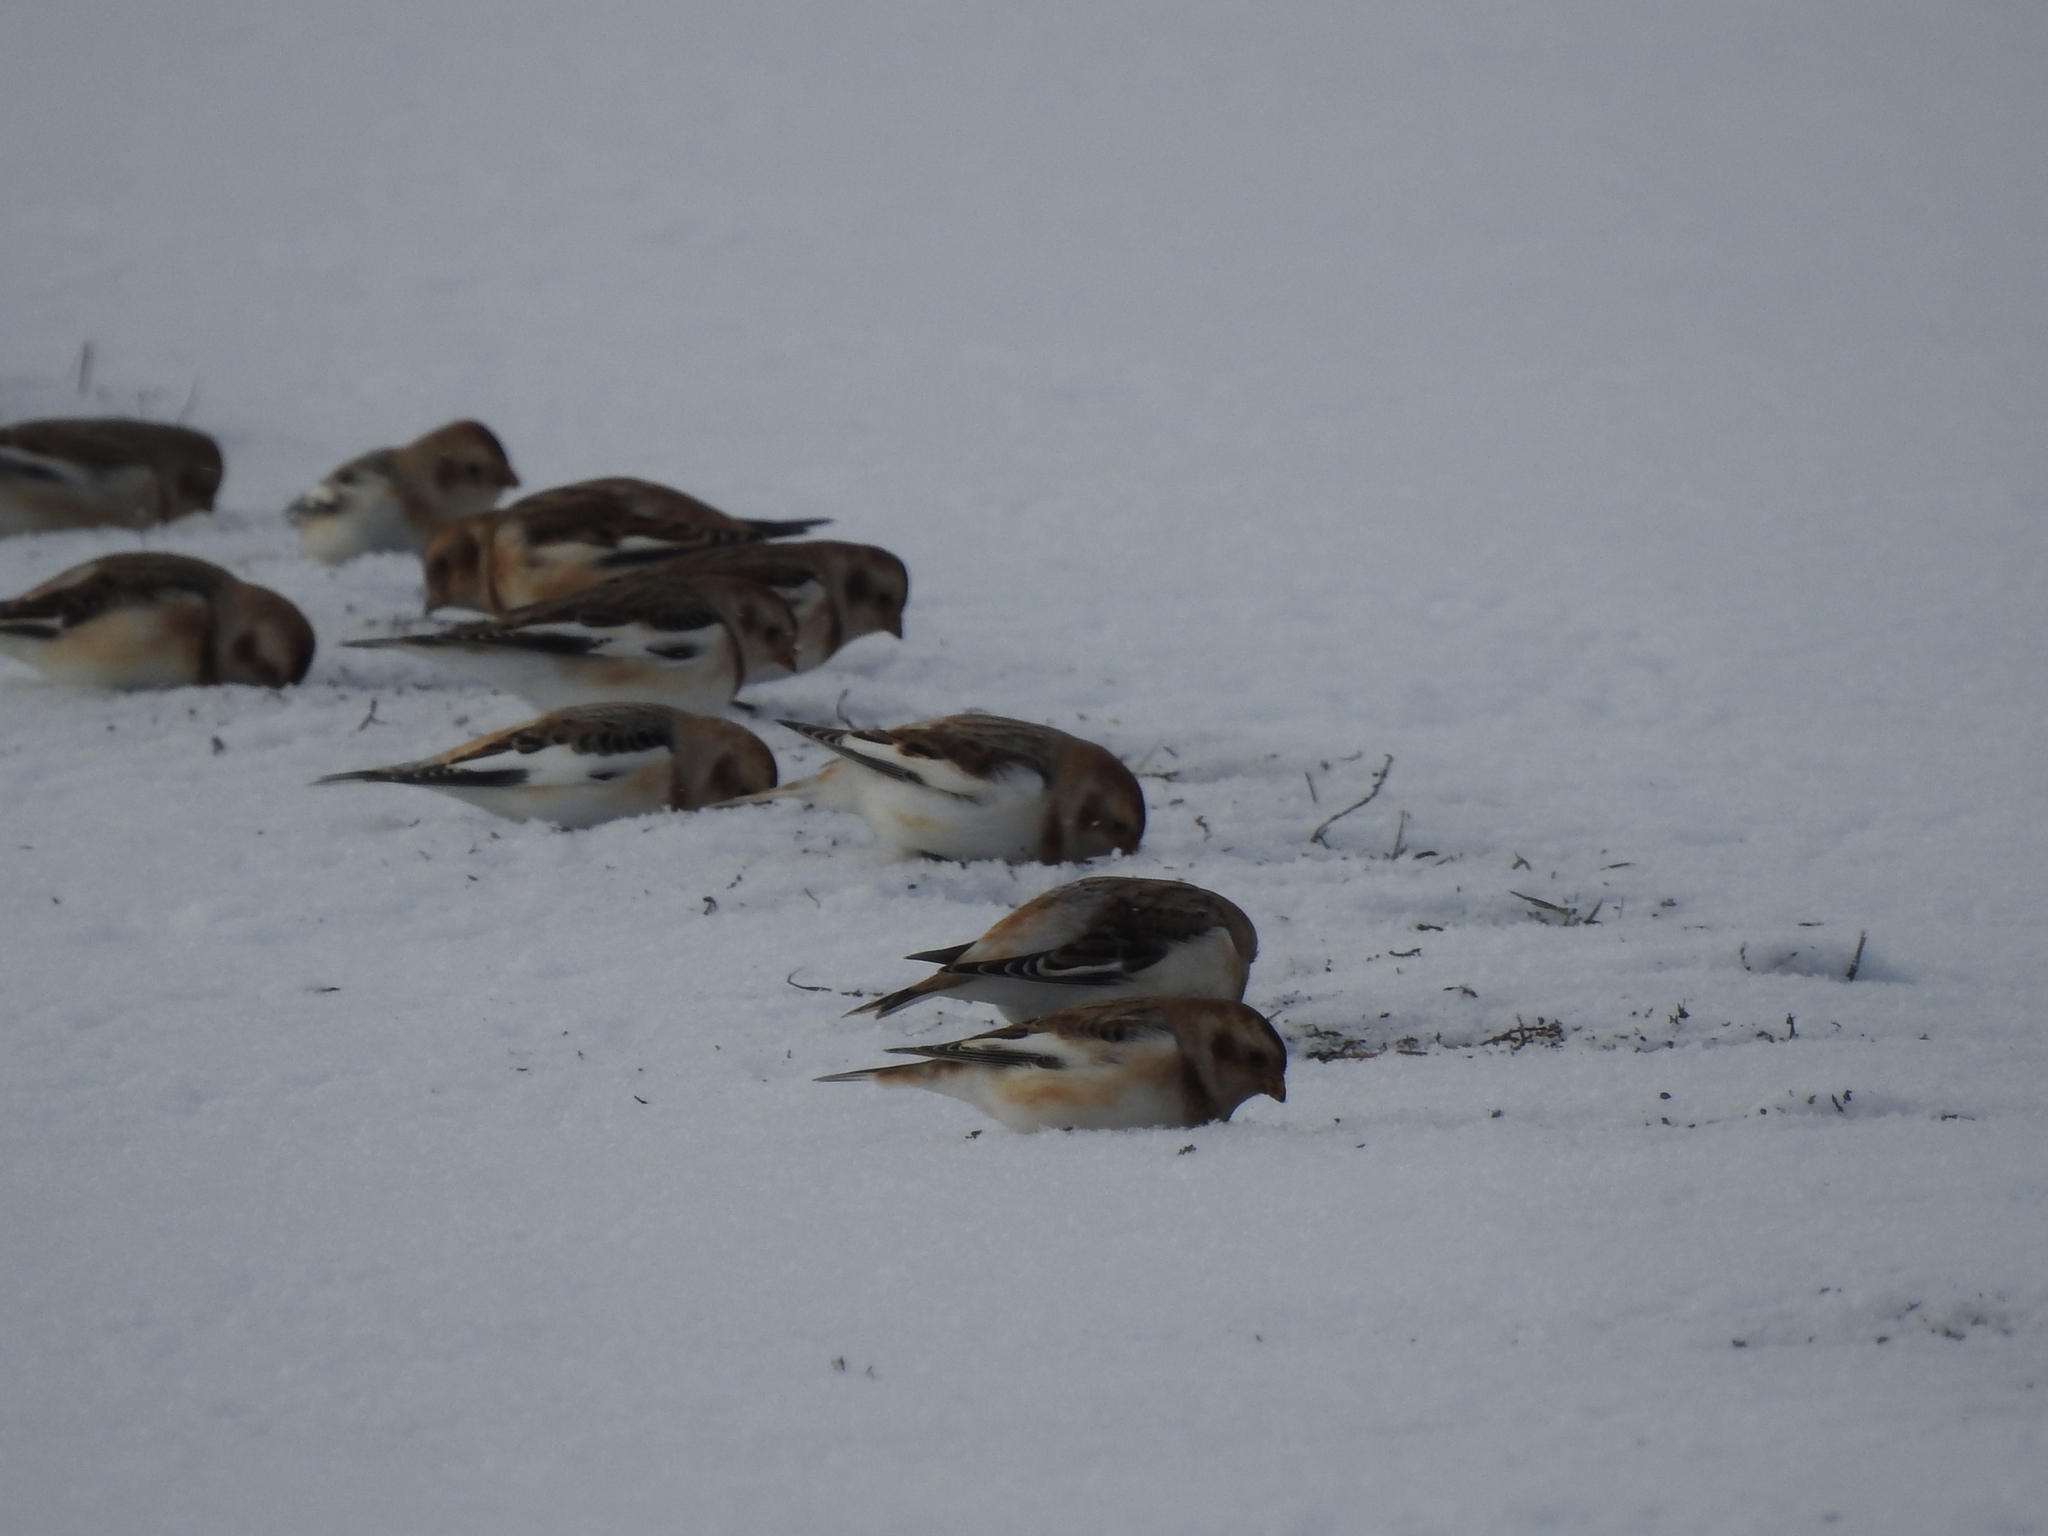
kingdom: Animalia
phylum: Chordata
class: Aves
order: Passeriformes
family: Calcariidae
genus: Plectrophenax
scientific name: Plectrophenax nivalis
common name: Snow bunting
